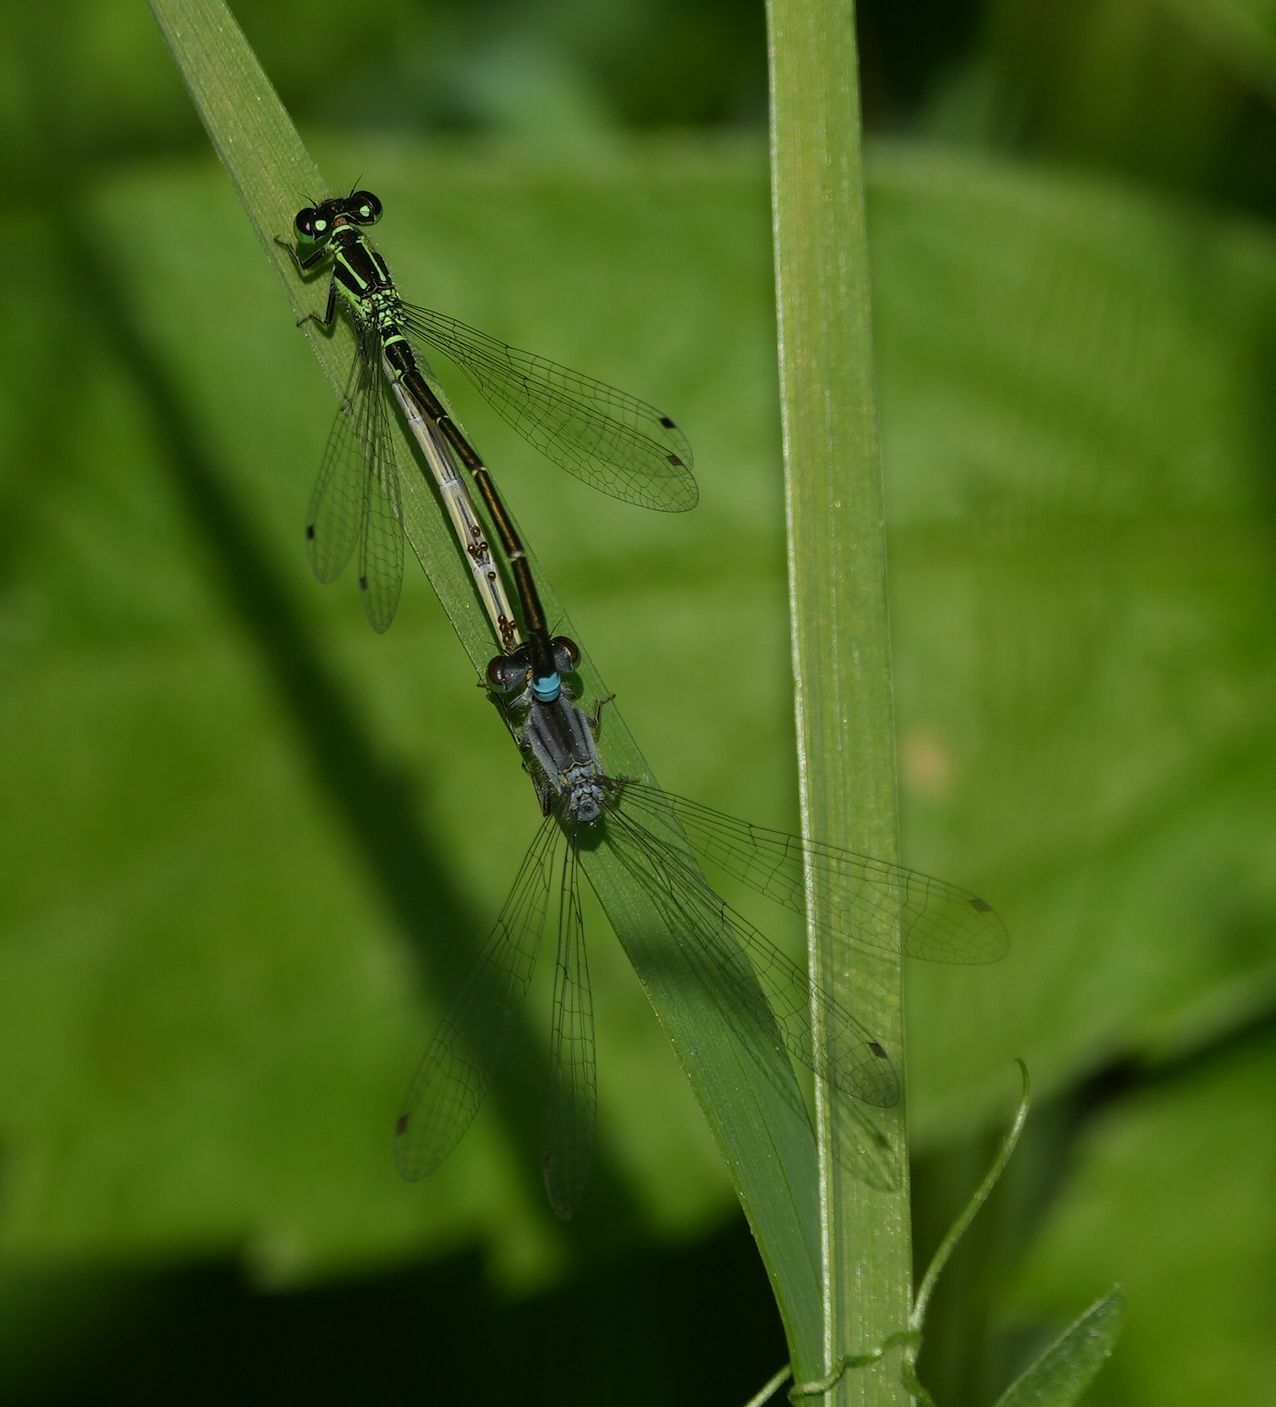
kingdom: Animalia
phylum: Arthropoda
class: Insecta
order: Odonata
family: Coenagrionidae
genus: Ischnura
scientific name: Ischnura verticalis
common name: Eastern forktail
